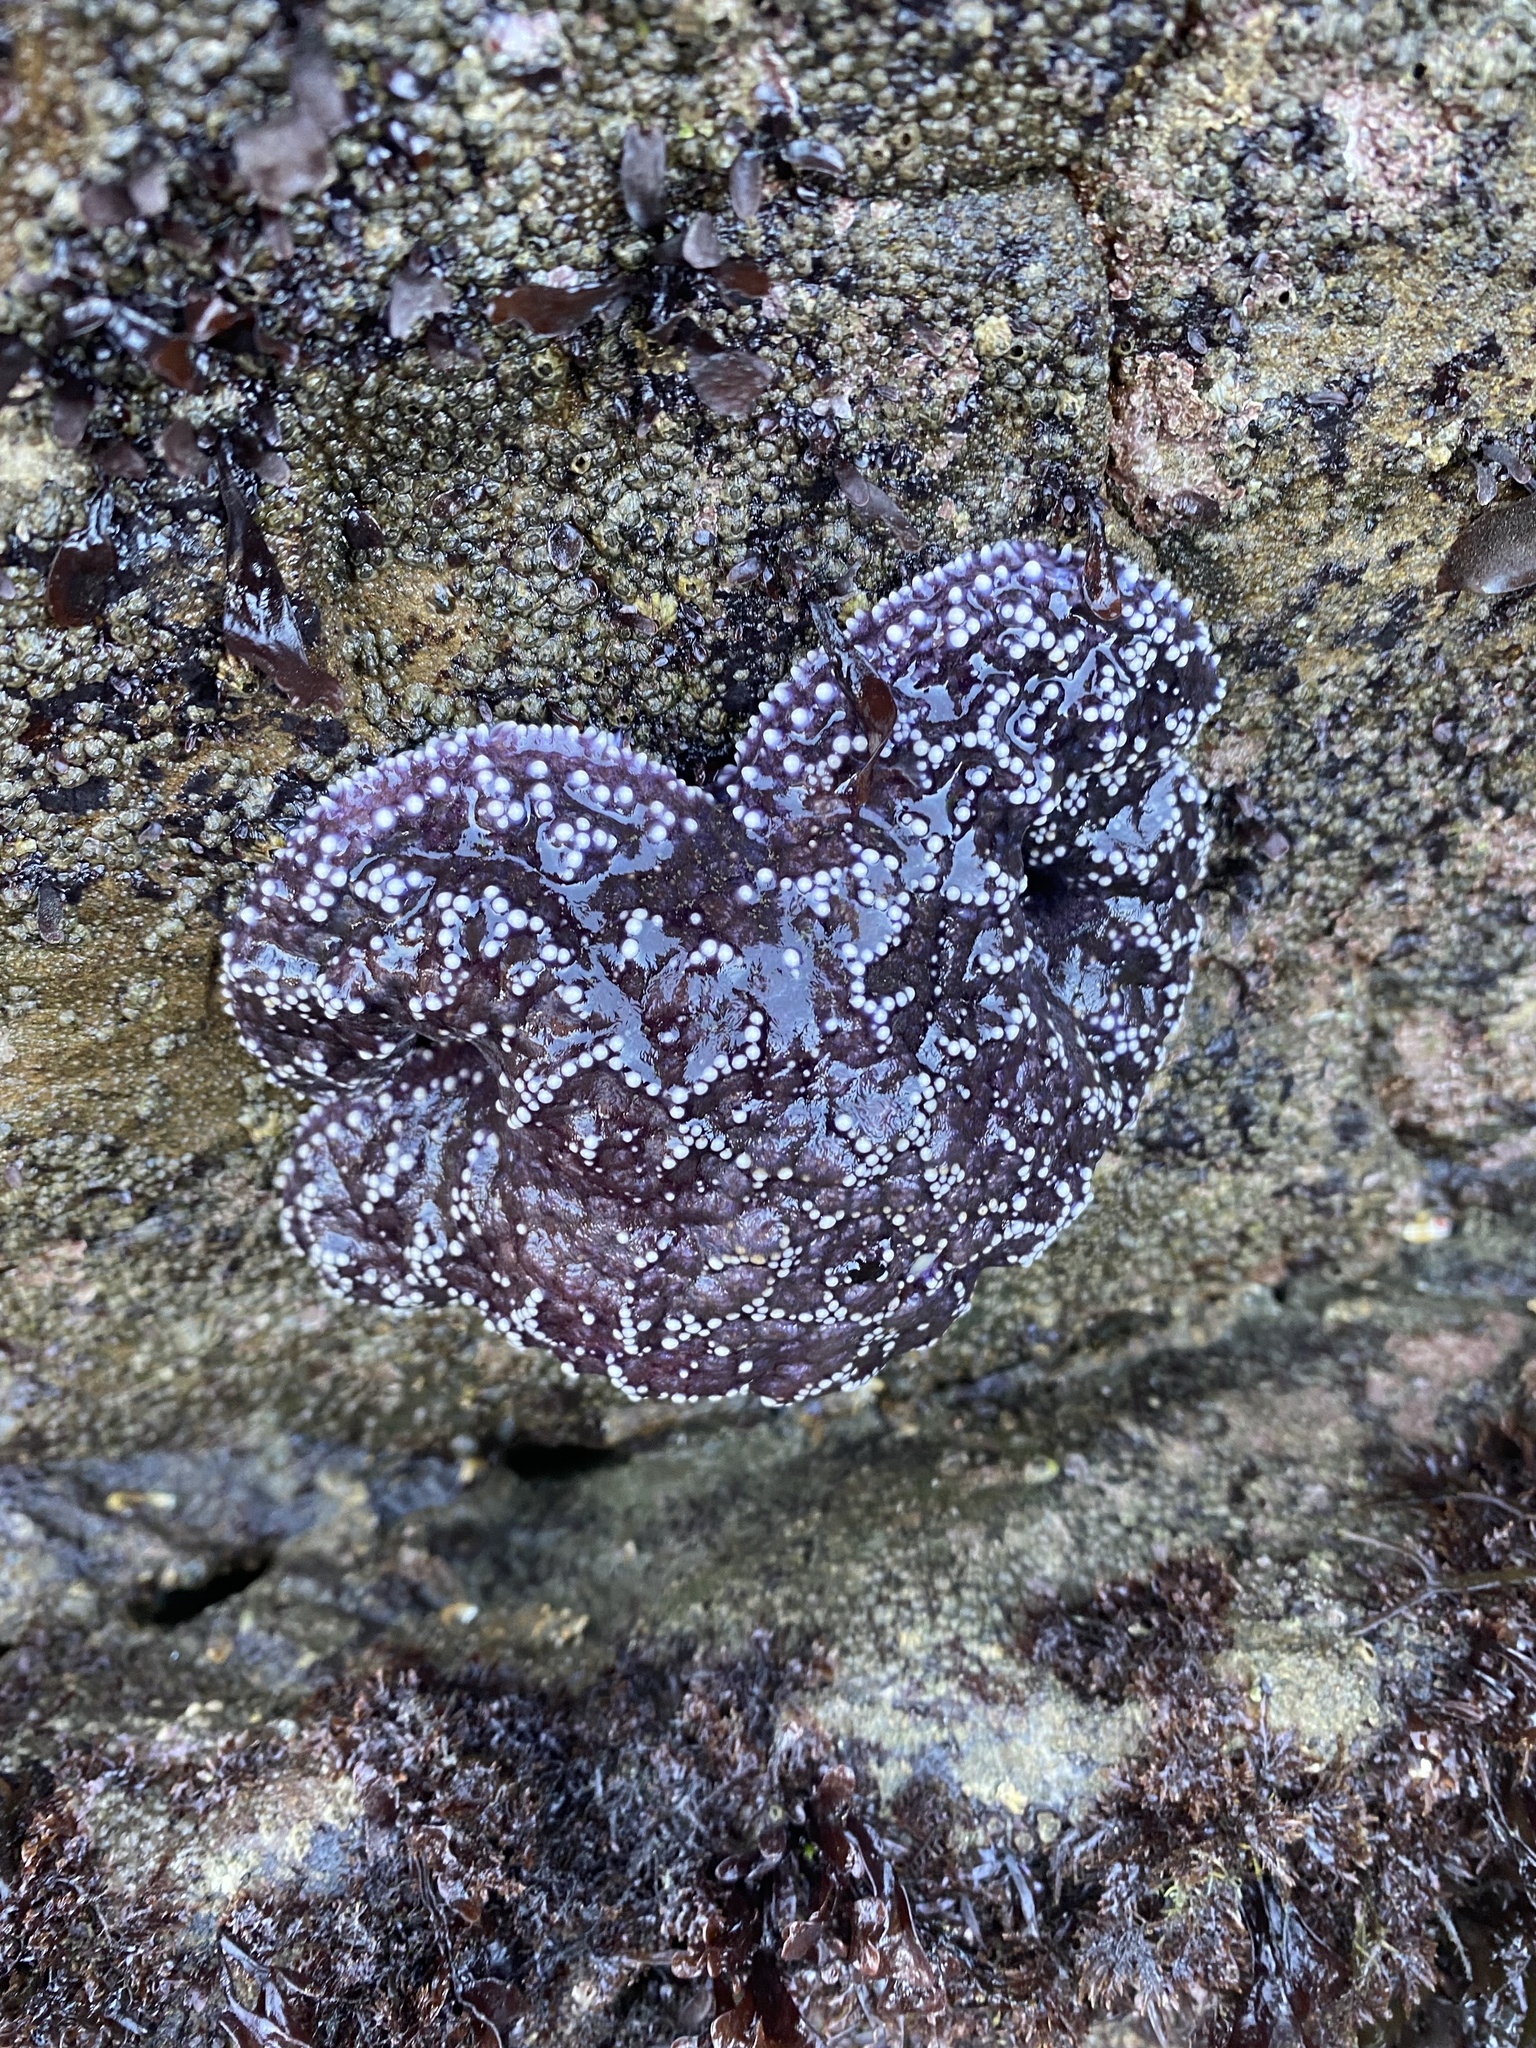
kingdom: Animalia
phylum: Echinodermata
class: Asteroidea
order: Forcipulatida
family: Asteriidae
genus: Pisaster
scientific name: Pisaster ochraceus
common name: Ochre stars
